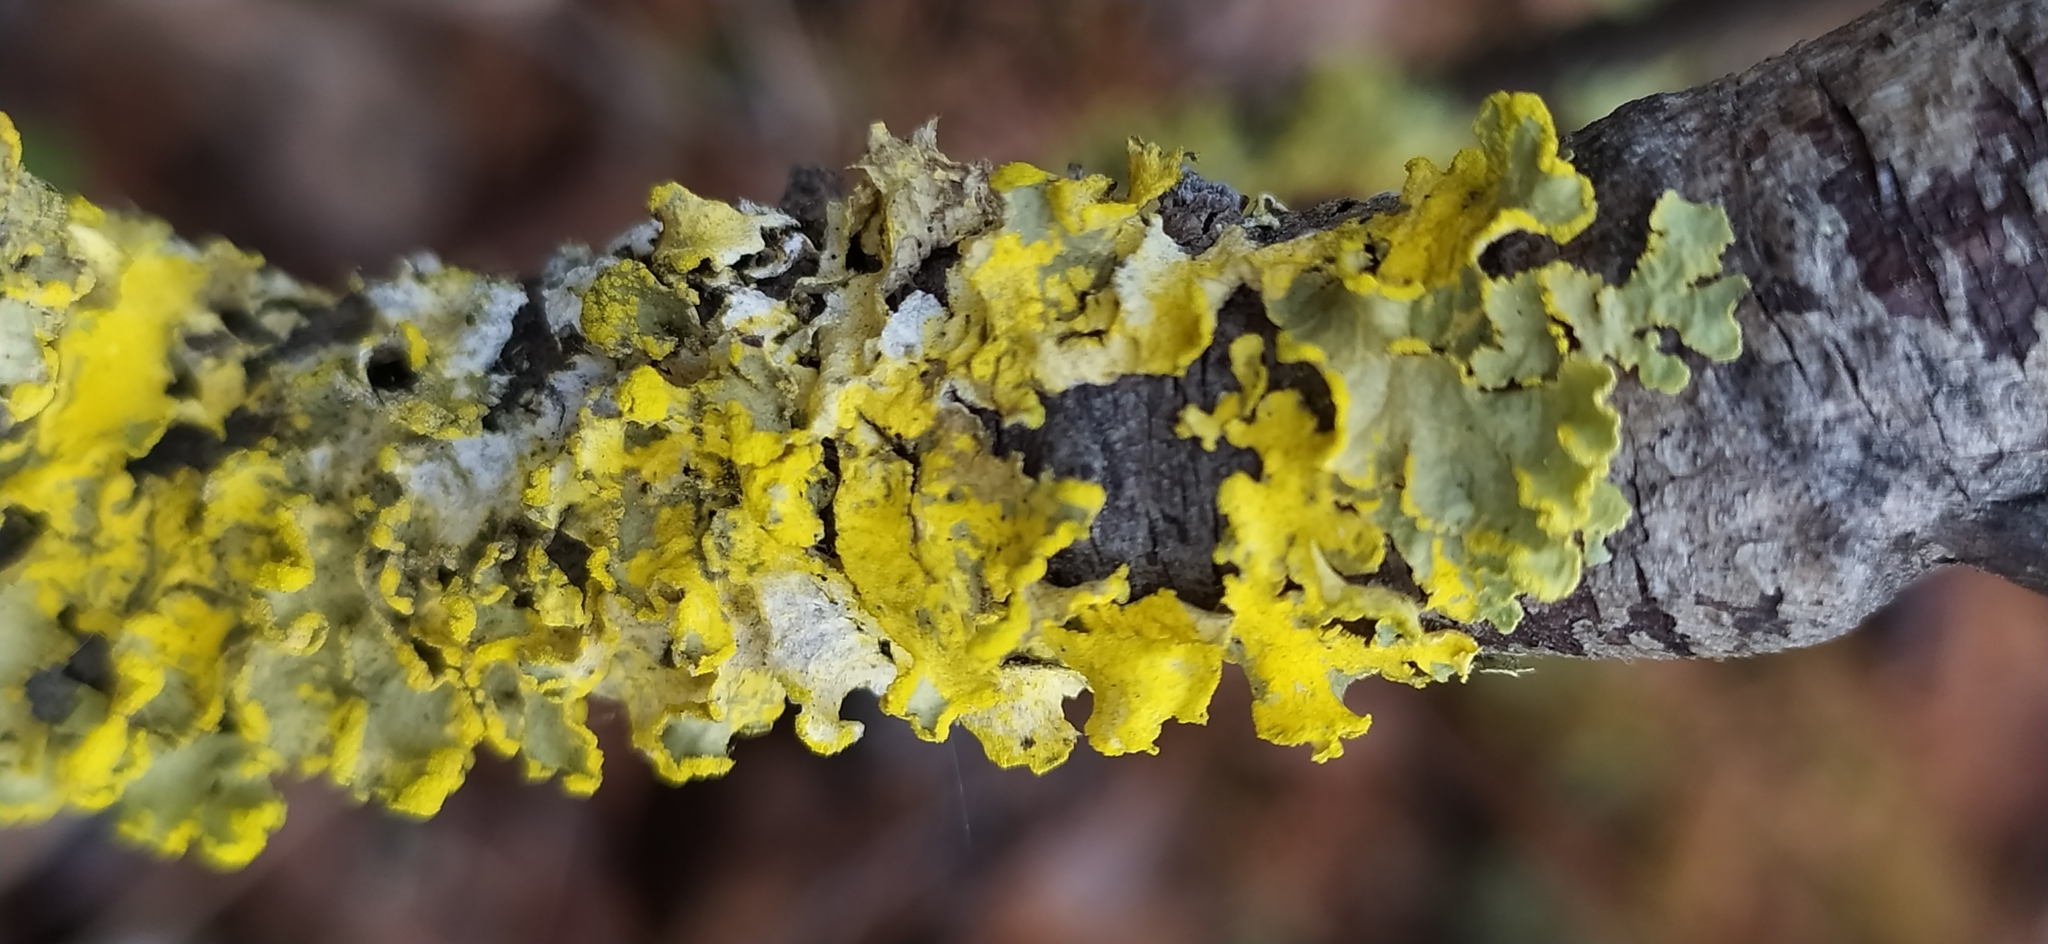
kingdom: Fungi
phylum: Ascomycota
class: Lecanoromycetes
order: Lecanorales
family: Parmeliaceae
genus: Vulpicida
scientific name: Vulpicida pinastri
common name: Powdered sunshine lichen
